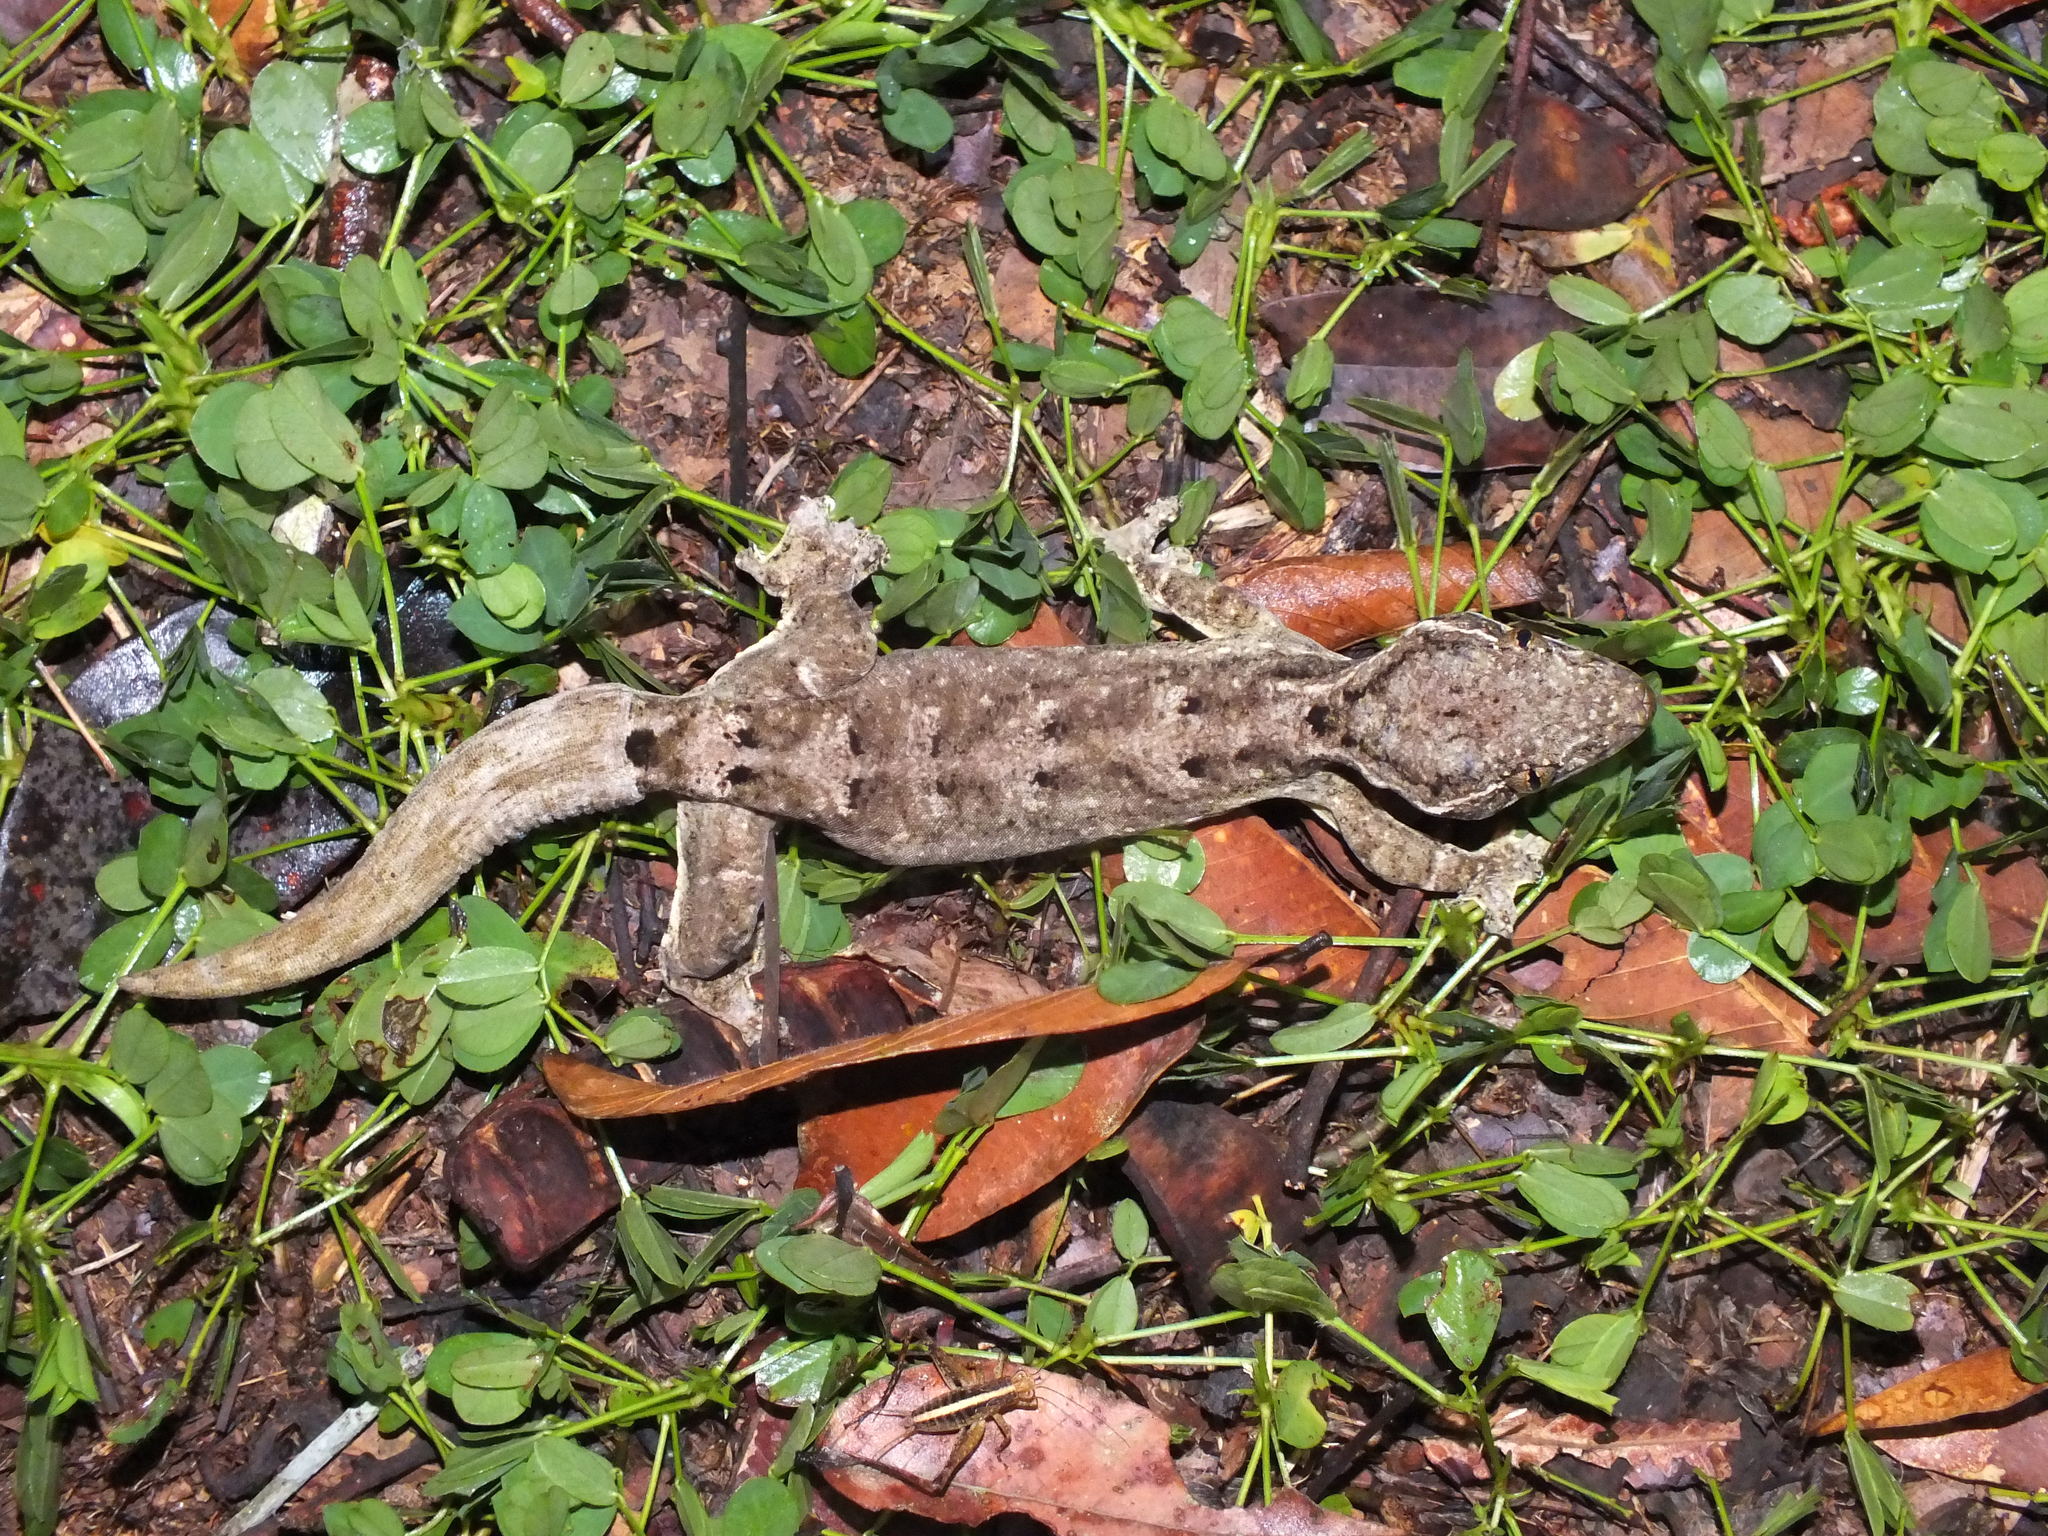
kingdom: Animalia
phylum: Chordata
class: Squamata
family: Phyllodactylidae
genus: Thecadactylus
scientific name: Thecadactylus solimoensis
